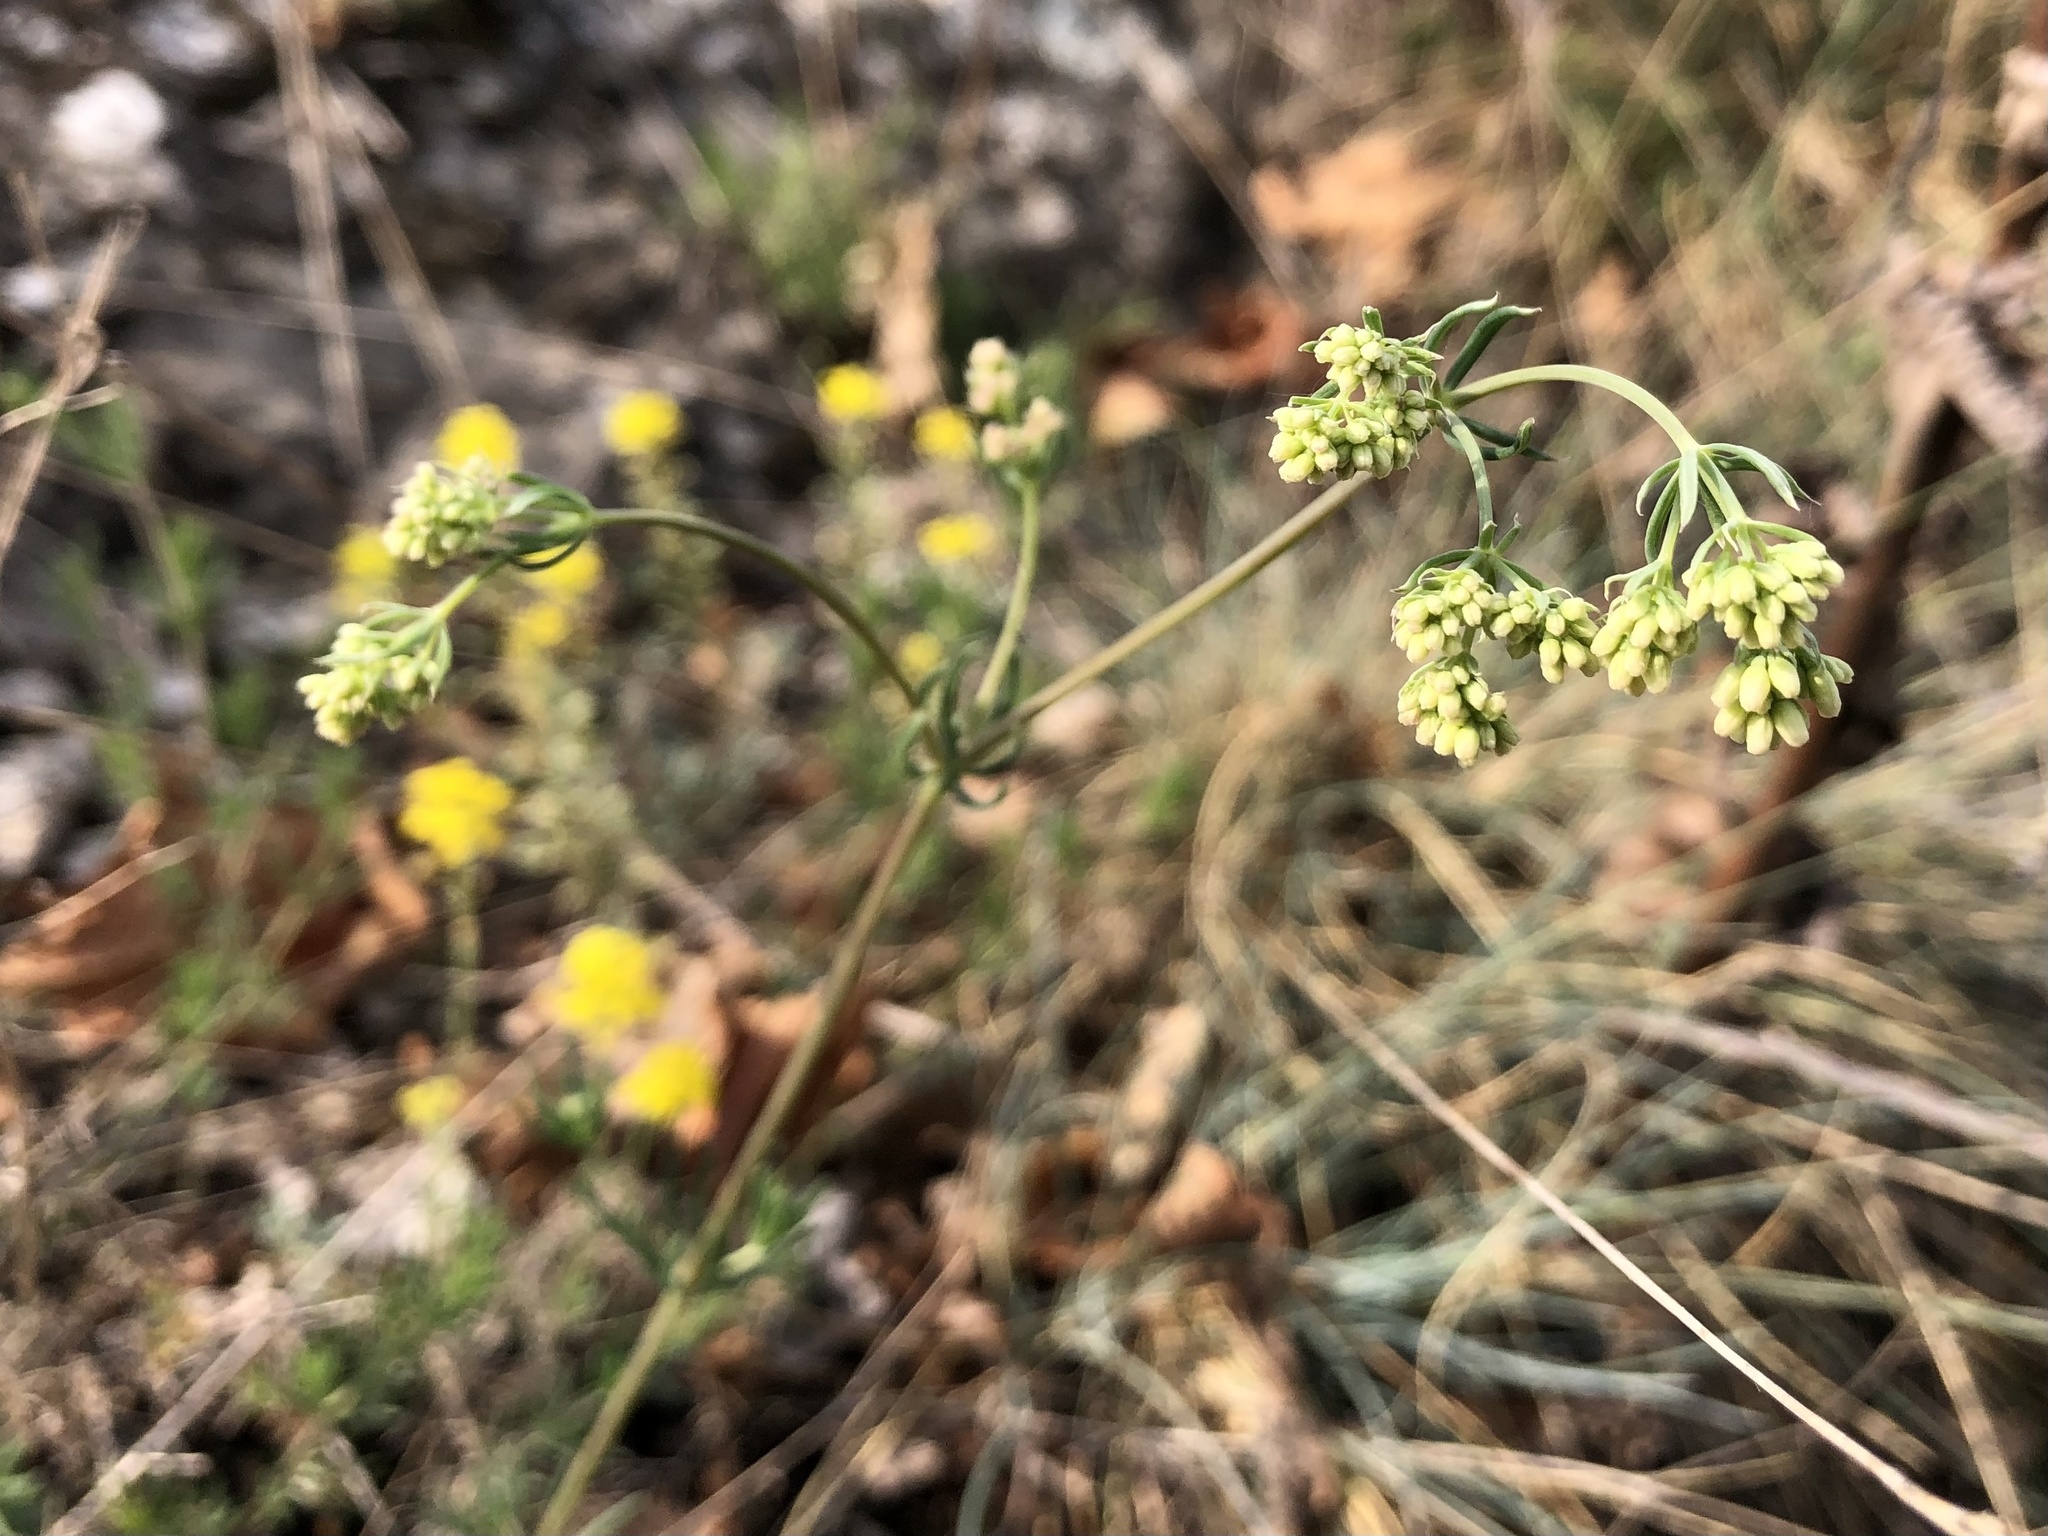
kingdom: Plantae
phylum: Tracheophyta
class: Magnoliopsida
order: Gentianales
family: Rubiaceae
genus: Galium
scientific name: Galium glaucum
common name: Waxy bedstraw
